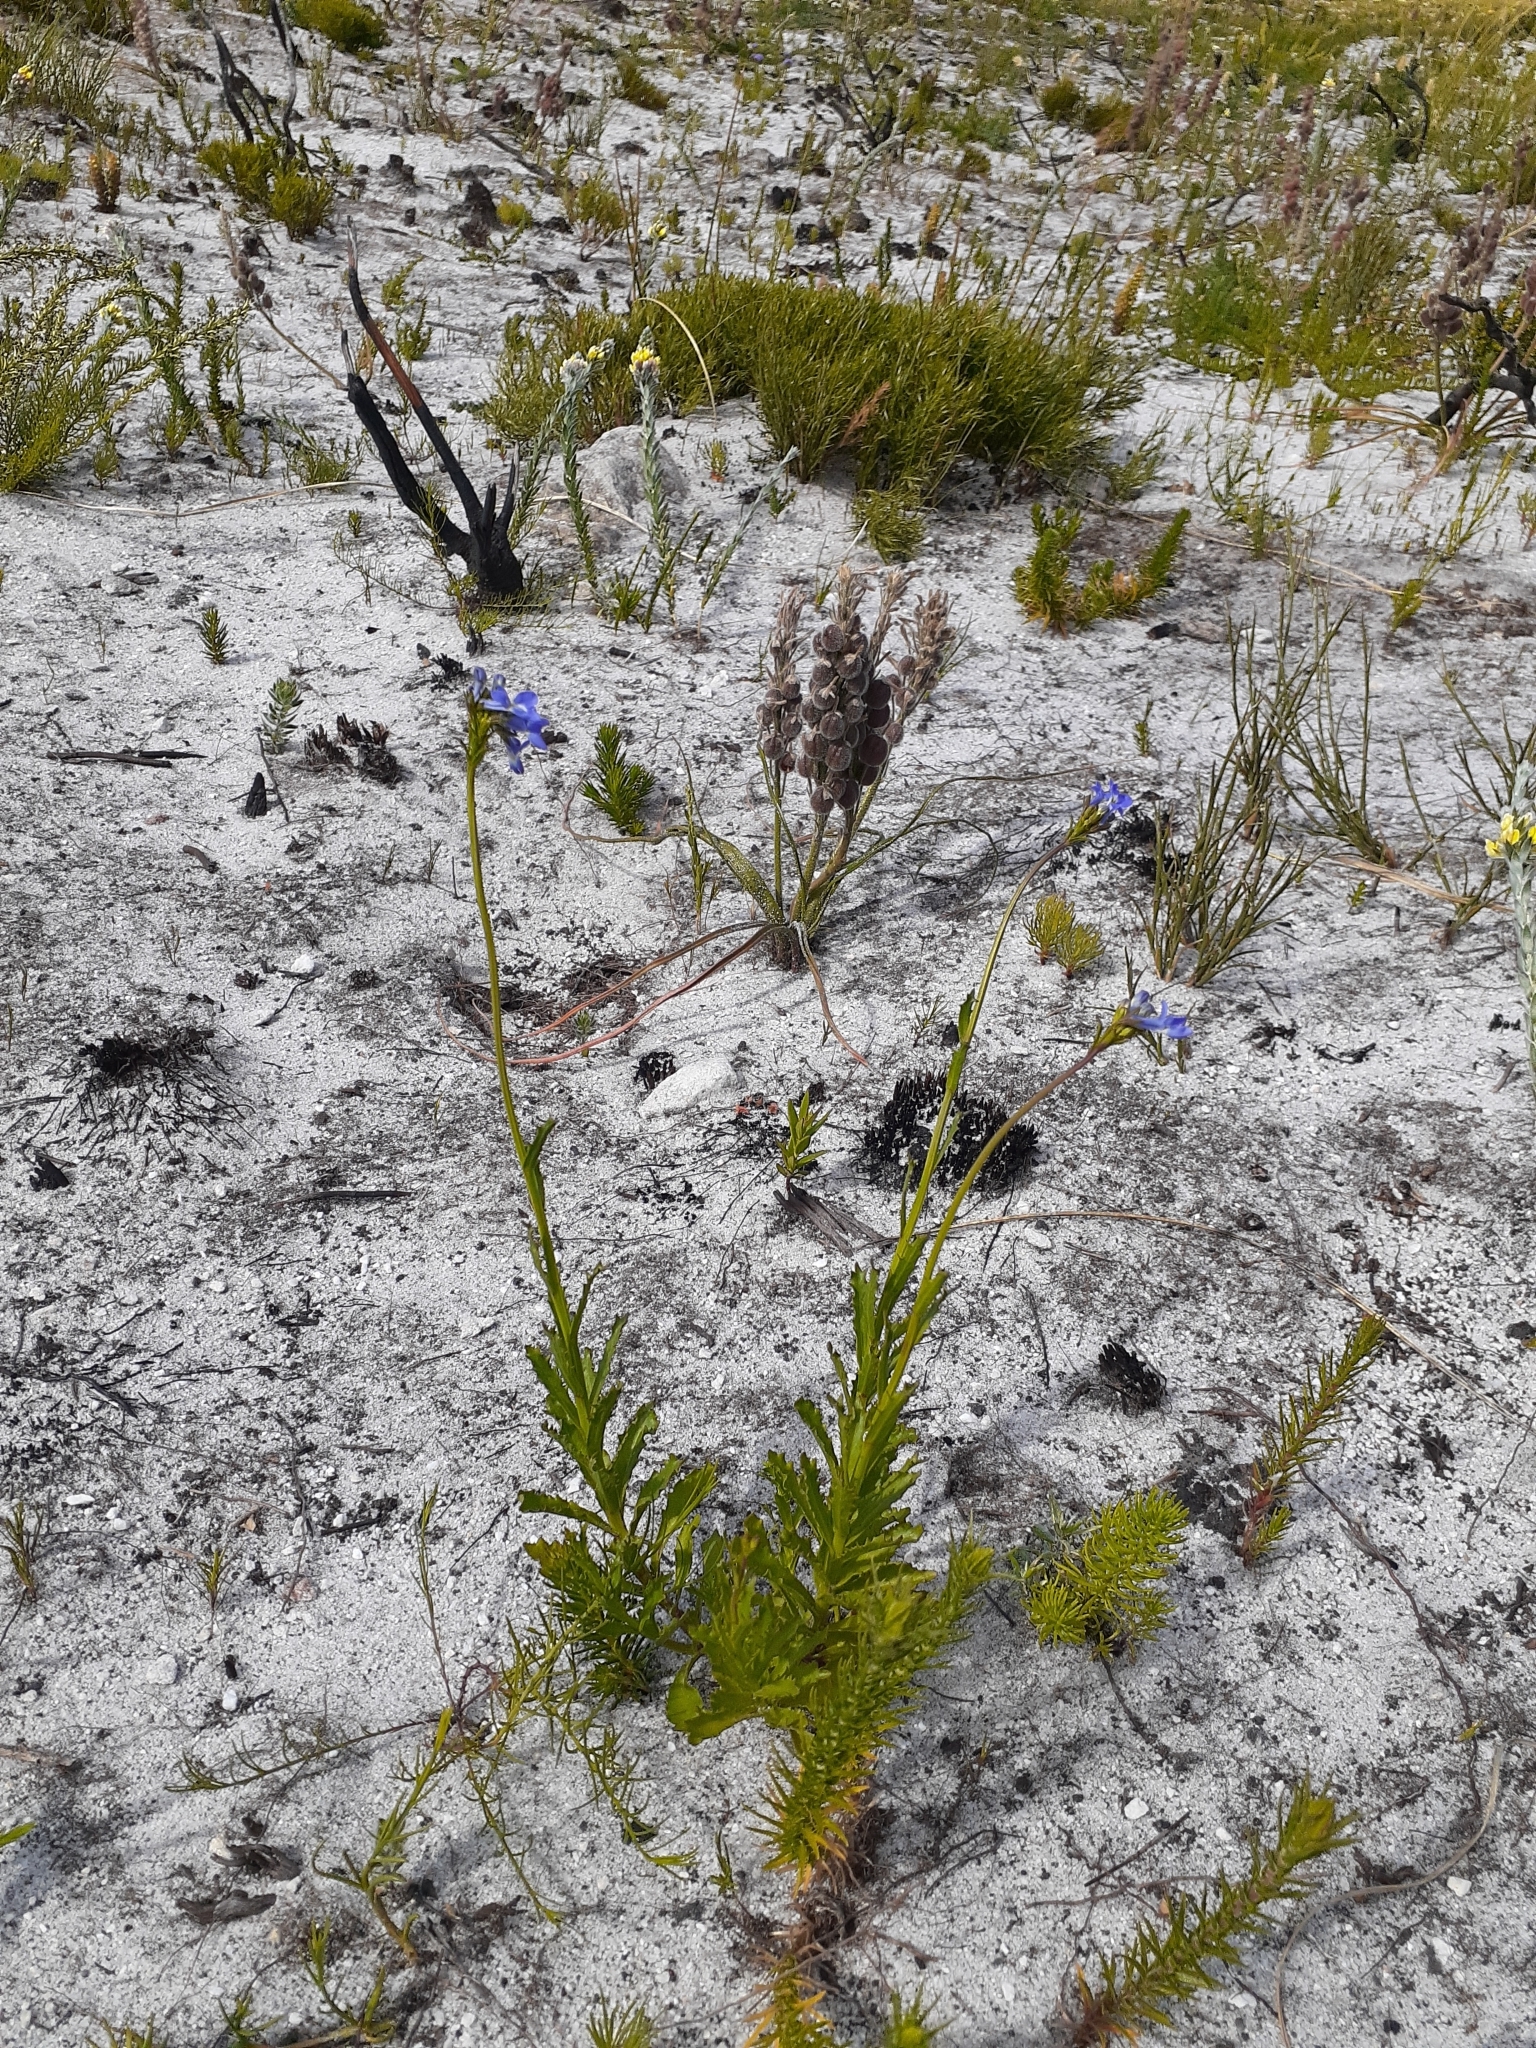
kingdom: Plantae
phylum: Tracheophyta
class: Magnoliopsida
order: Lamiales
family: Scrophulariaceae
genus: Pseudoselago
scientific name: Pseudoselago spuria
